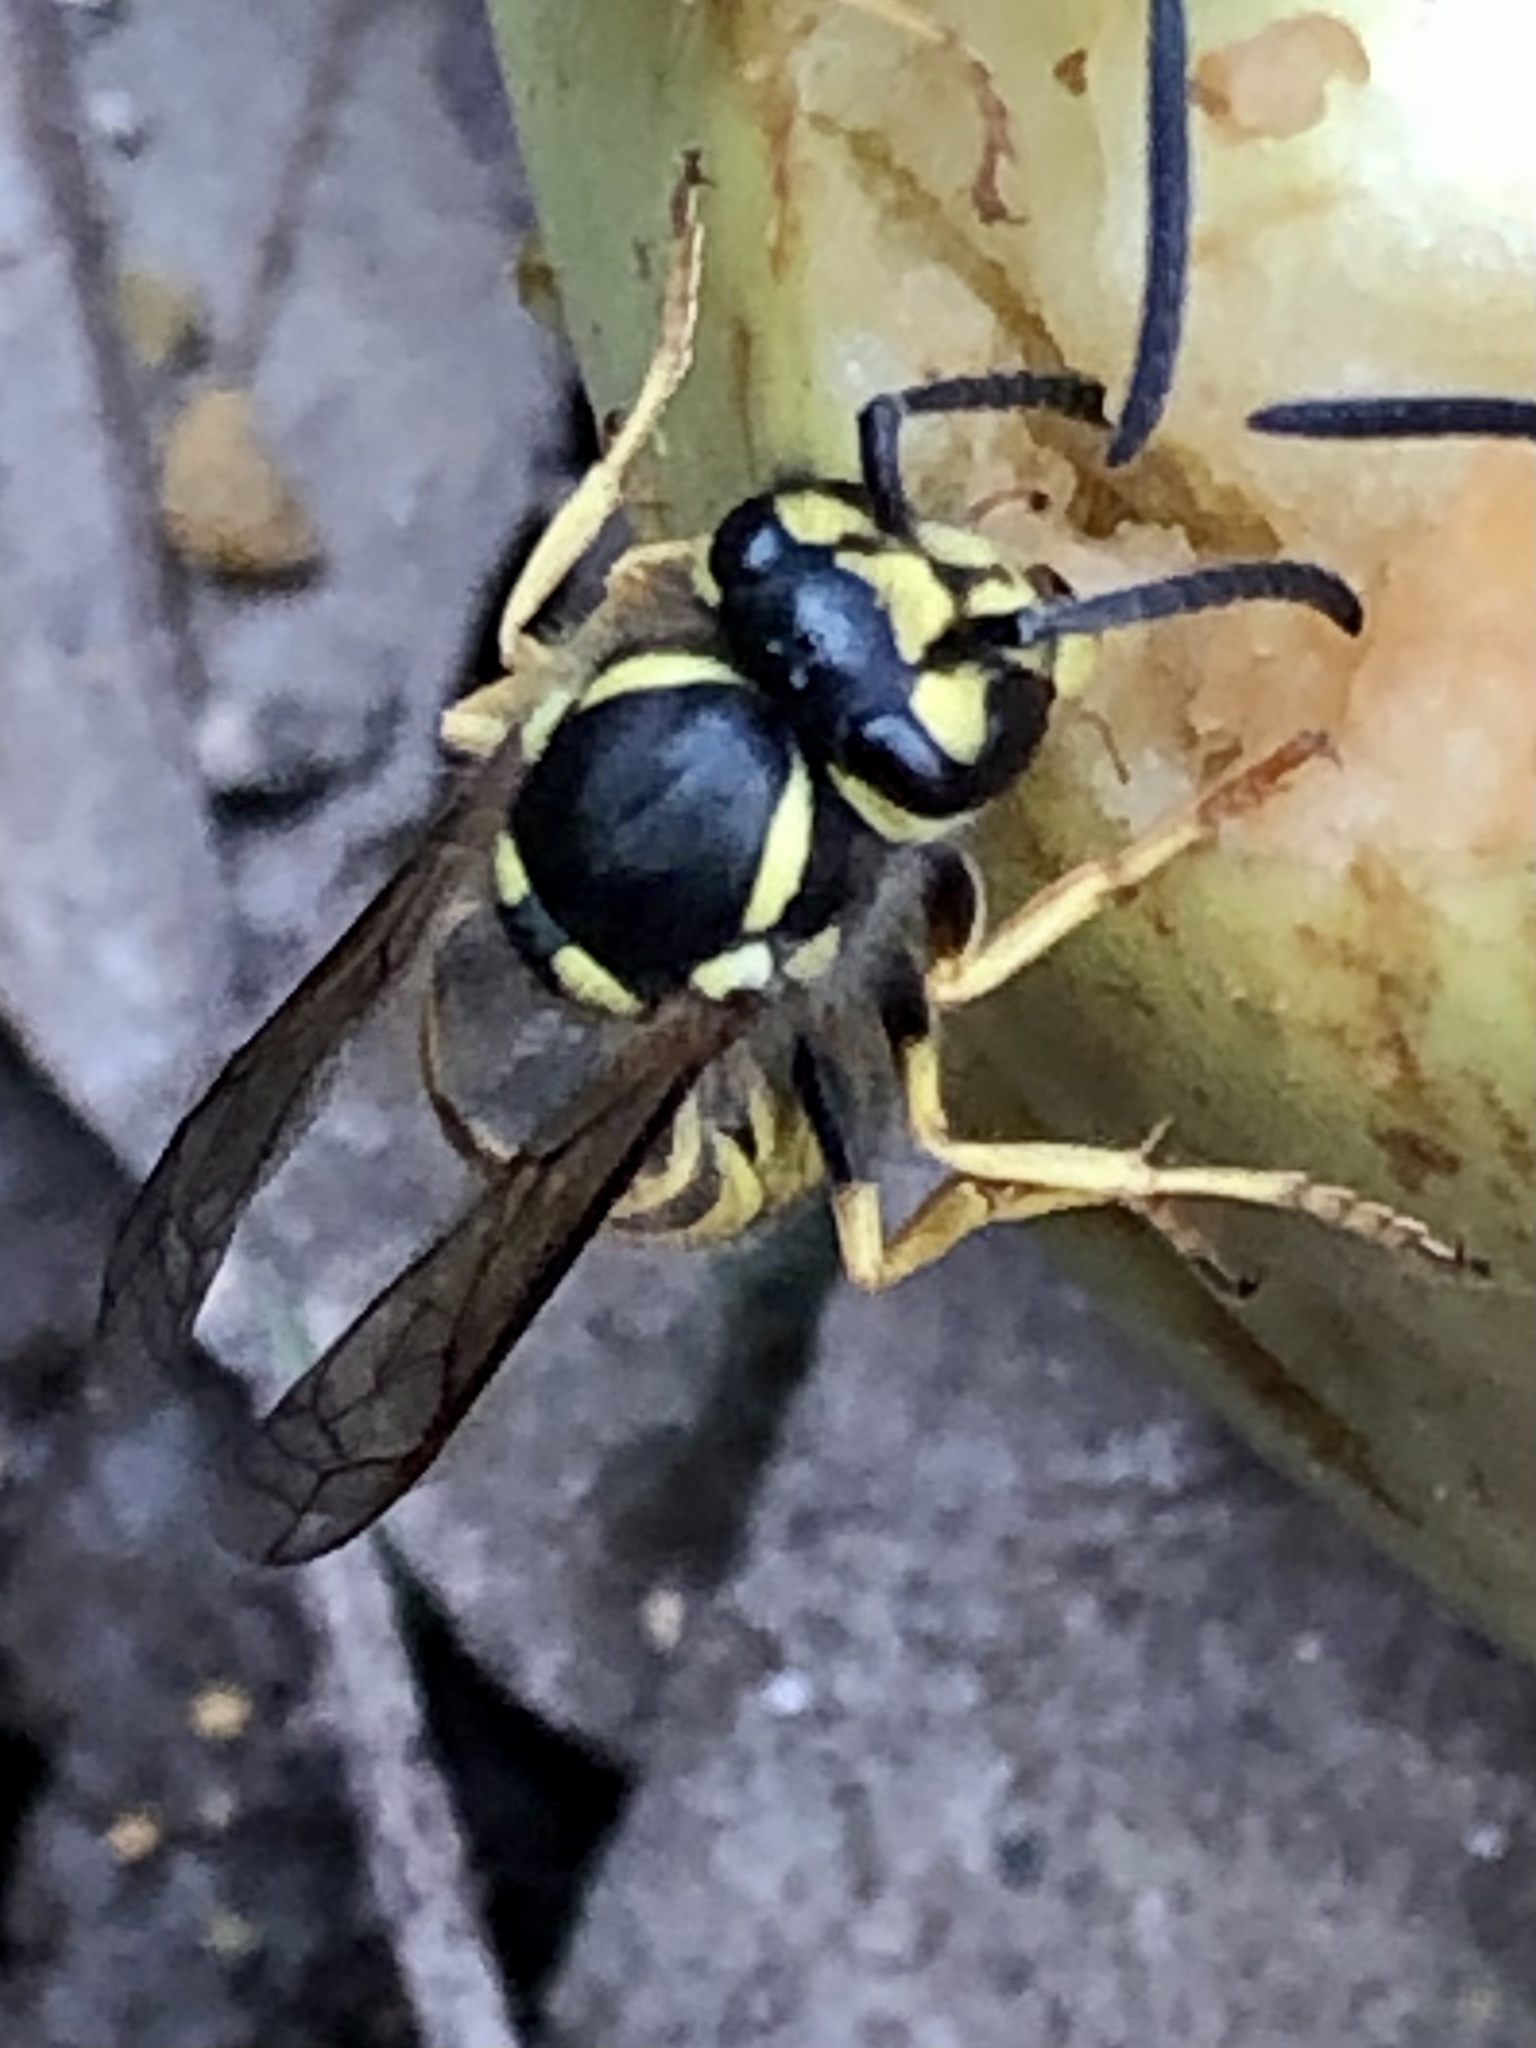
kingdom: Animalia
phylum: Arthropoda
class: Insecta
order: Hymenoptera
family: Vespidae
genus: Vespula
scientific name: Vespula germanica
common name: German wasp
